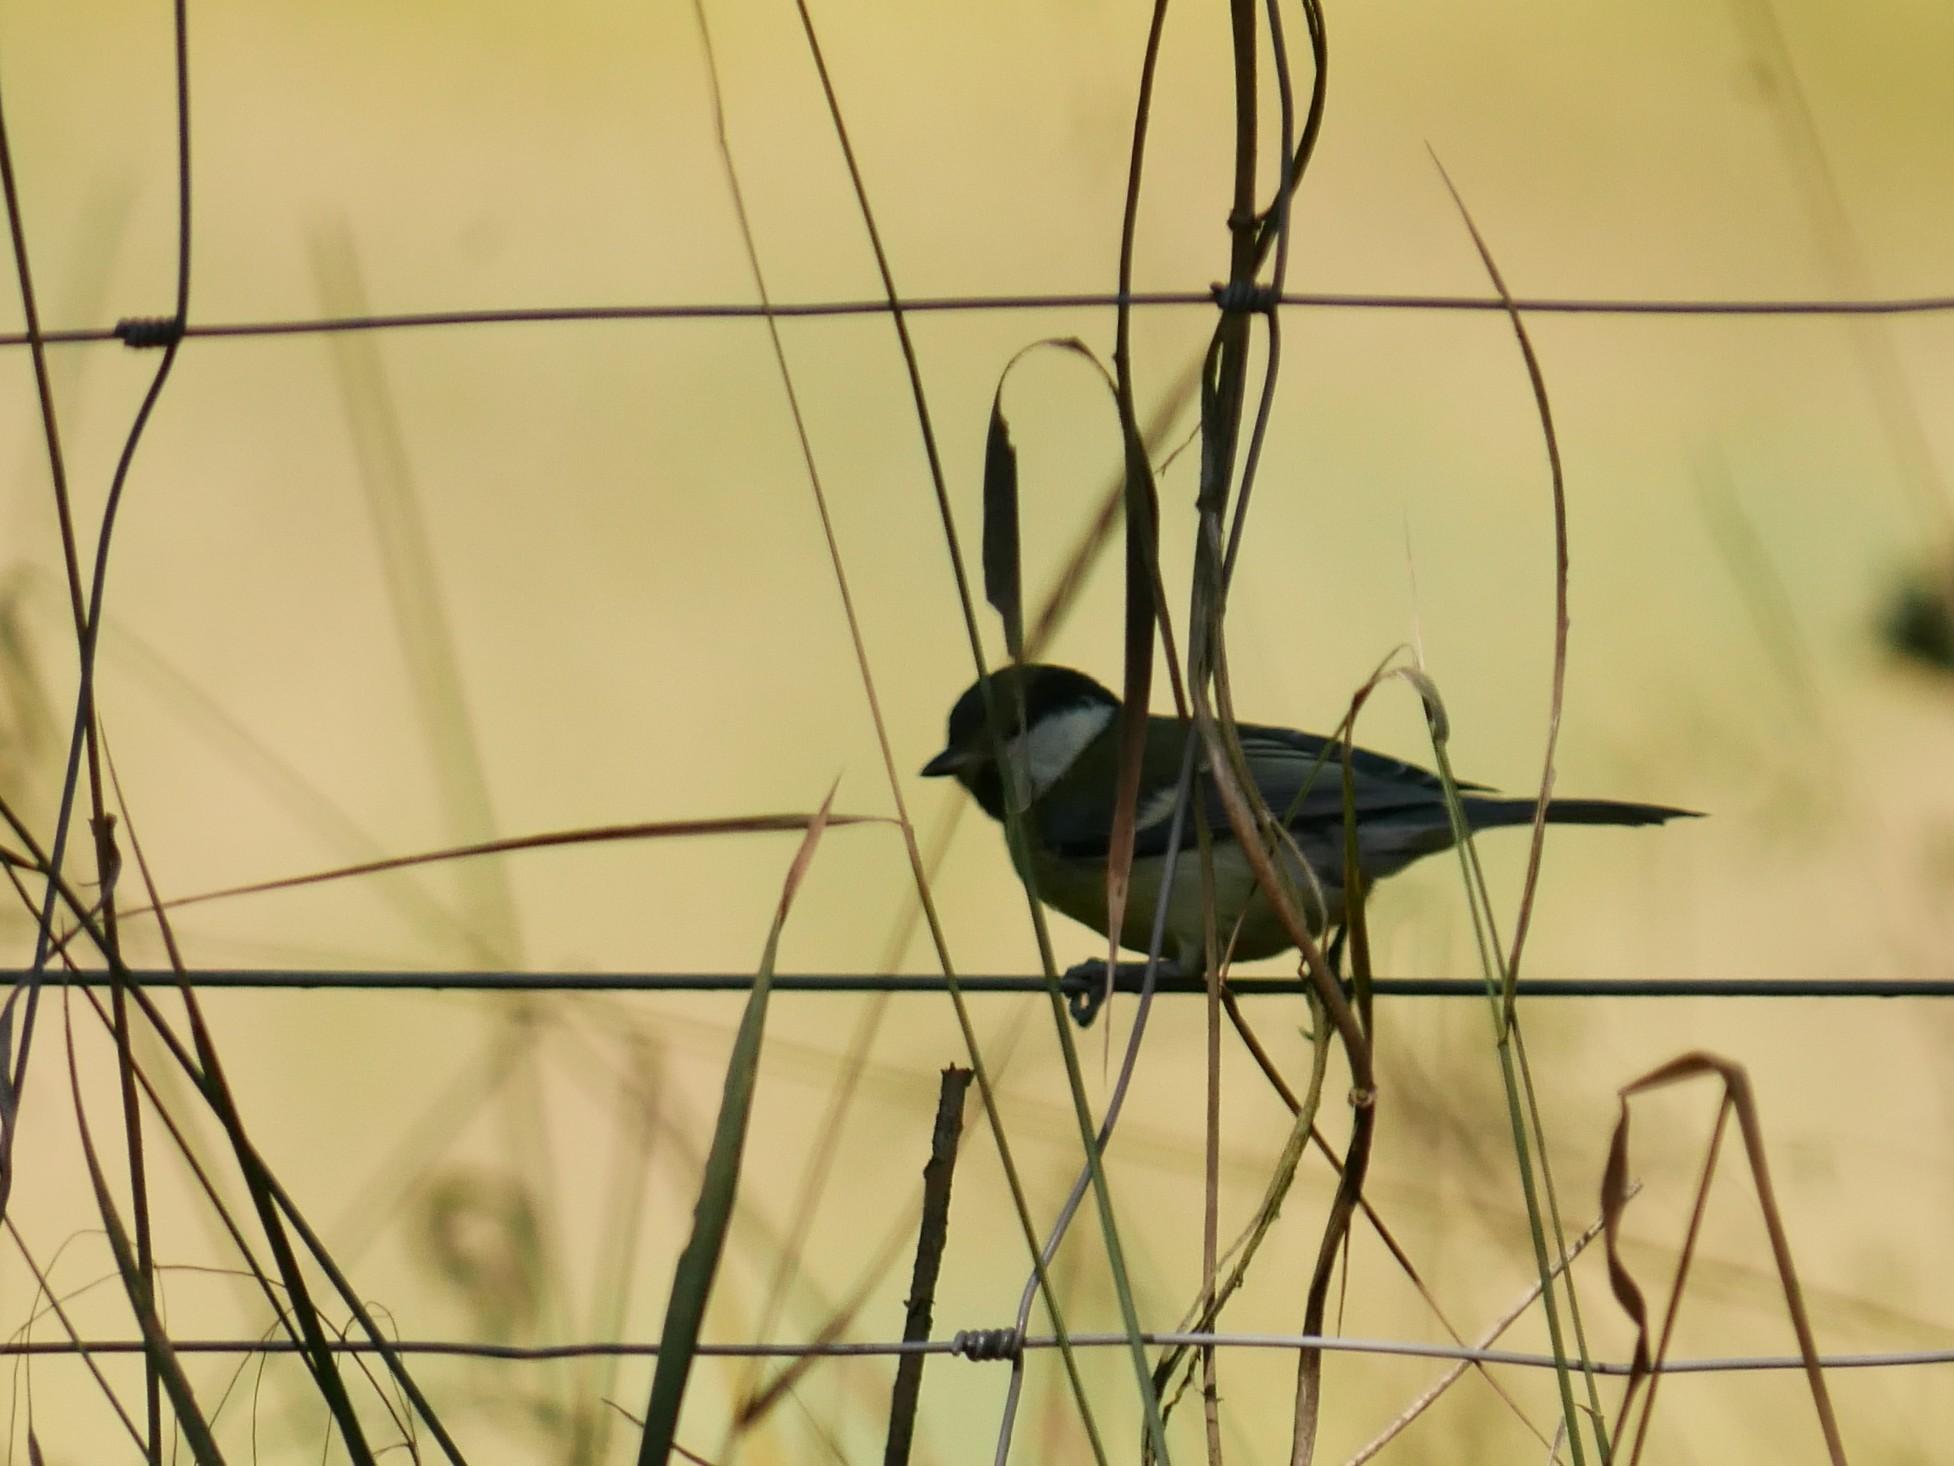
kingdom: Animalia
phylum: Chordata
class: Aves
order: Passeriformes
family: Paridae
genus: Parus
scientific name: Parus major
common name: Great tit
